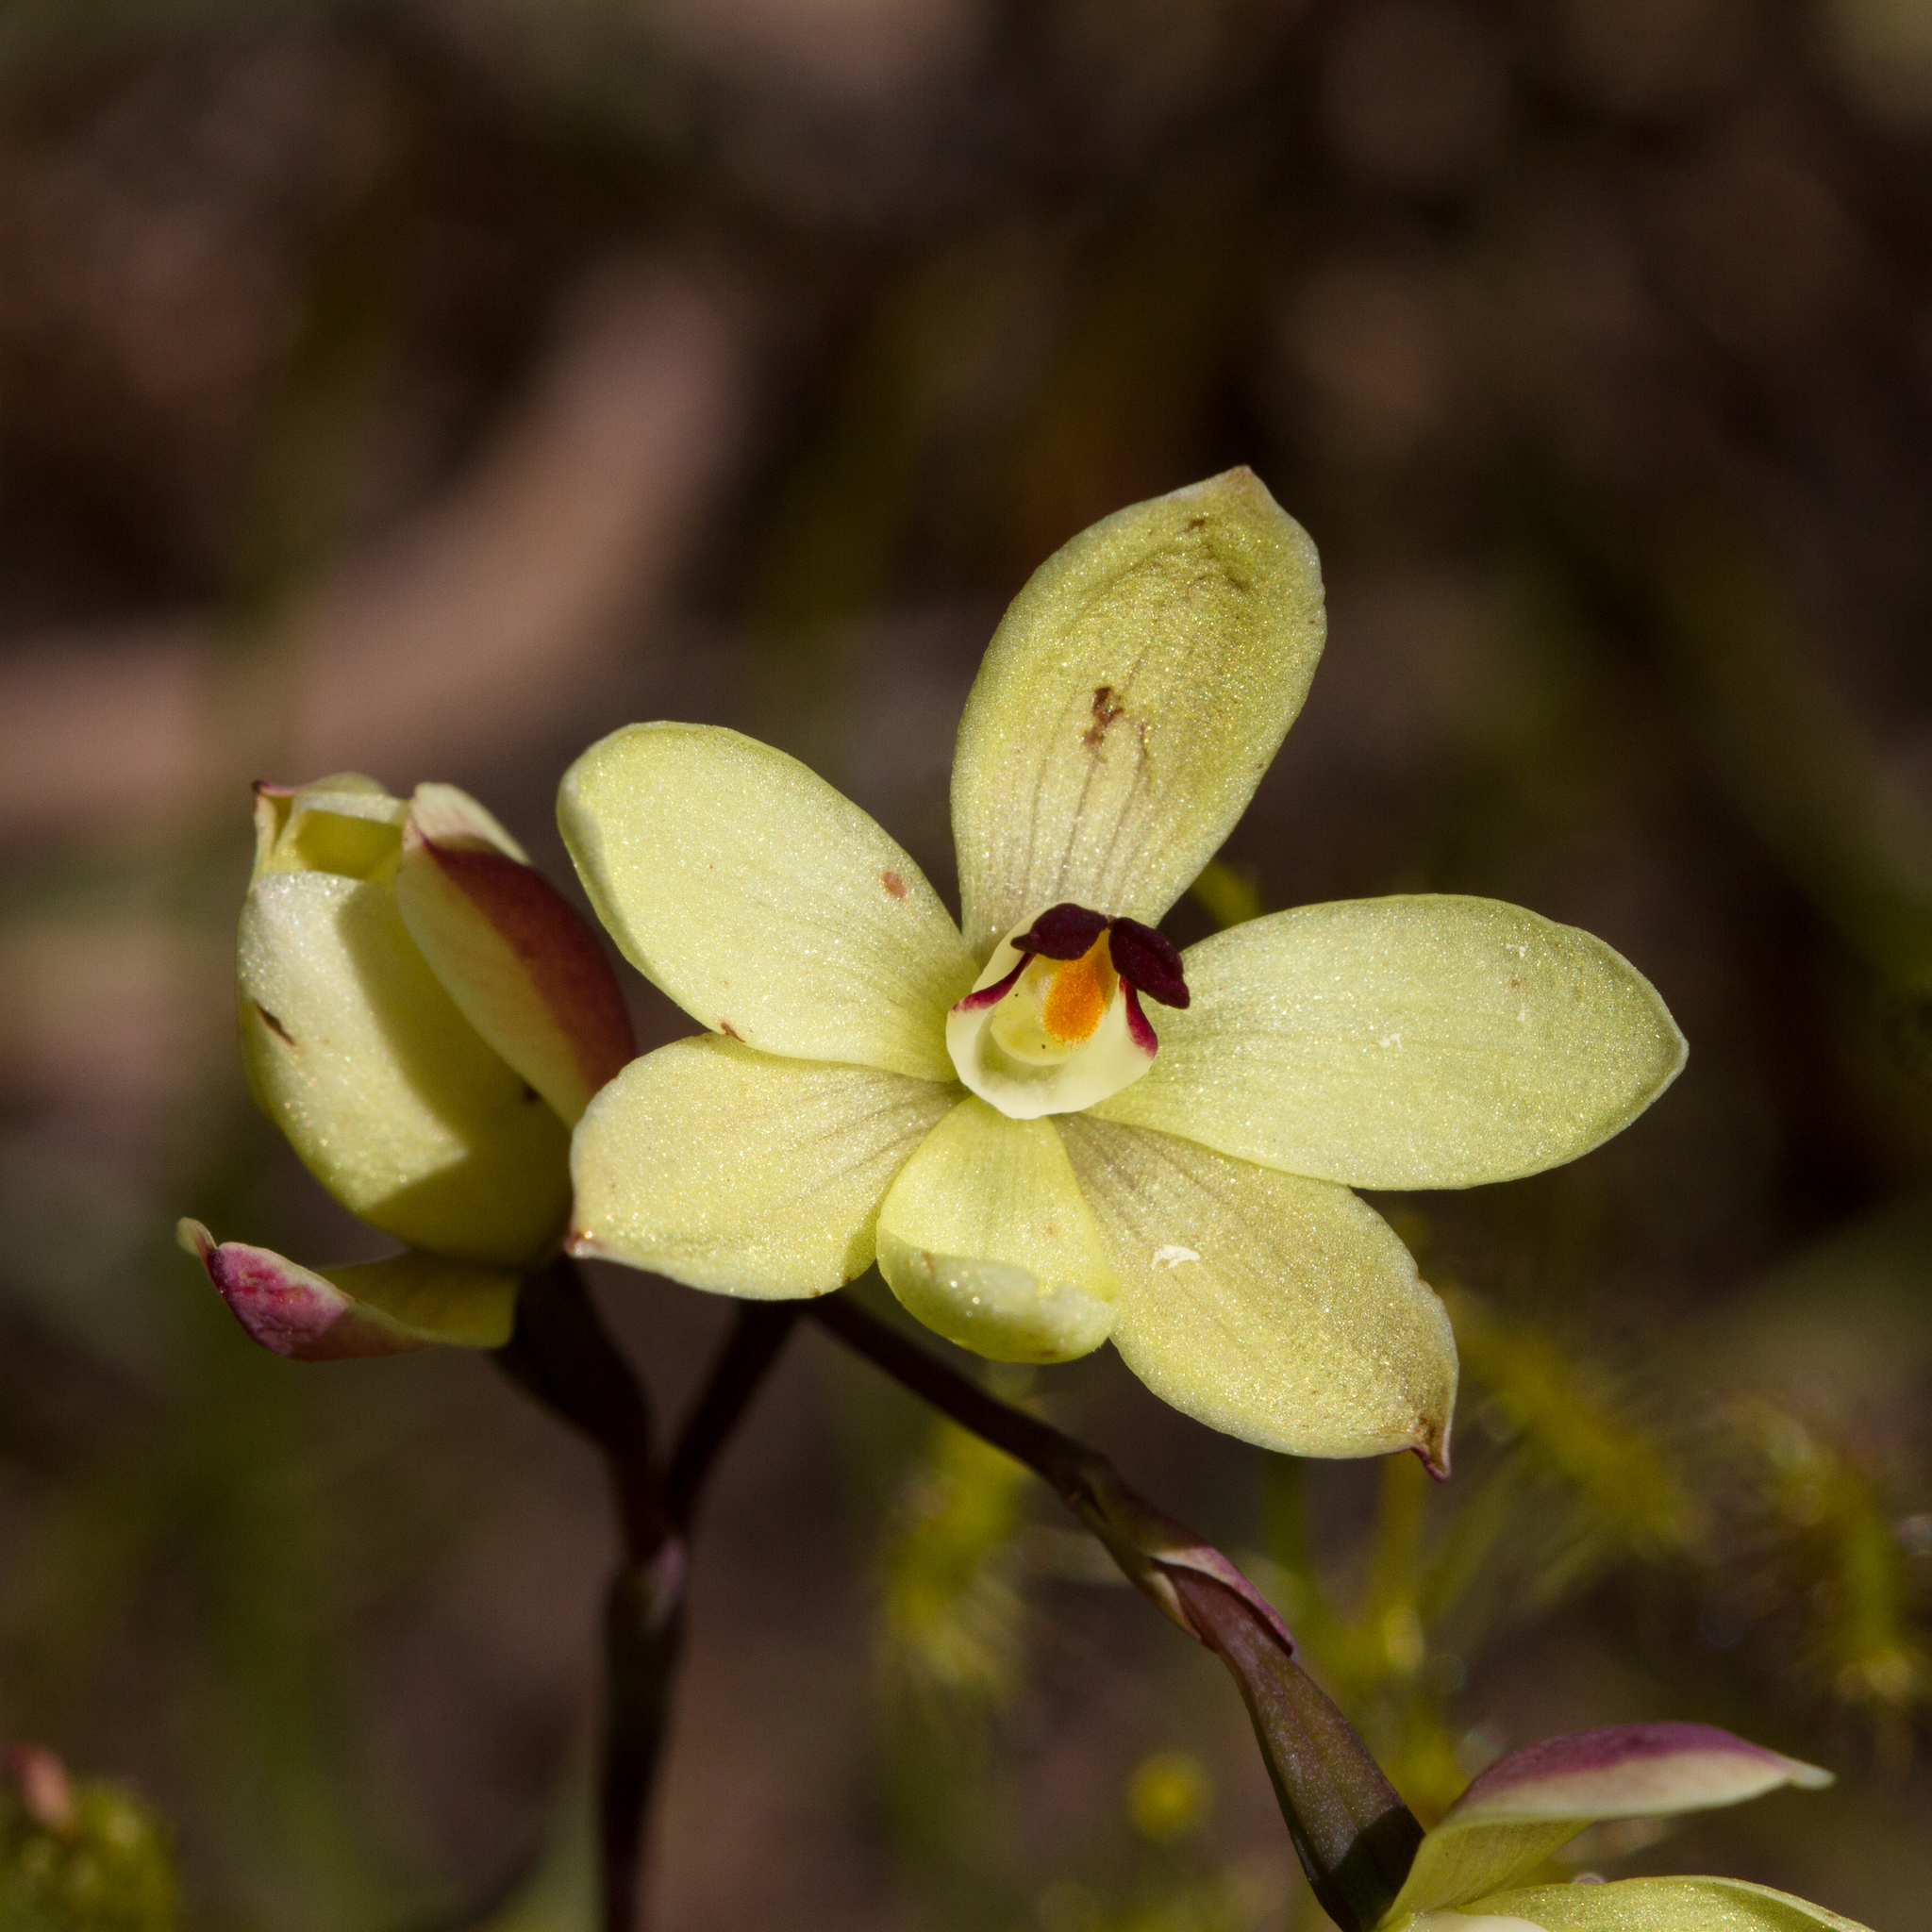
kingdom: Plantae
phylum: Tracheophyta
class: Liliopsida
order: Asparagales
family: Orchidaceae
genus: Thelymitra
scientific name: Thelymitra antennifera
